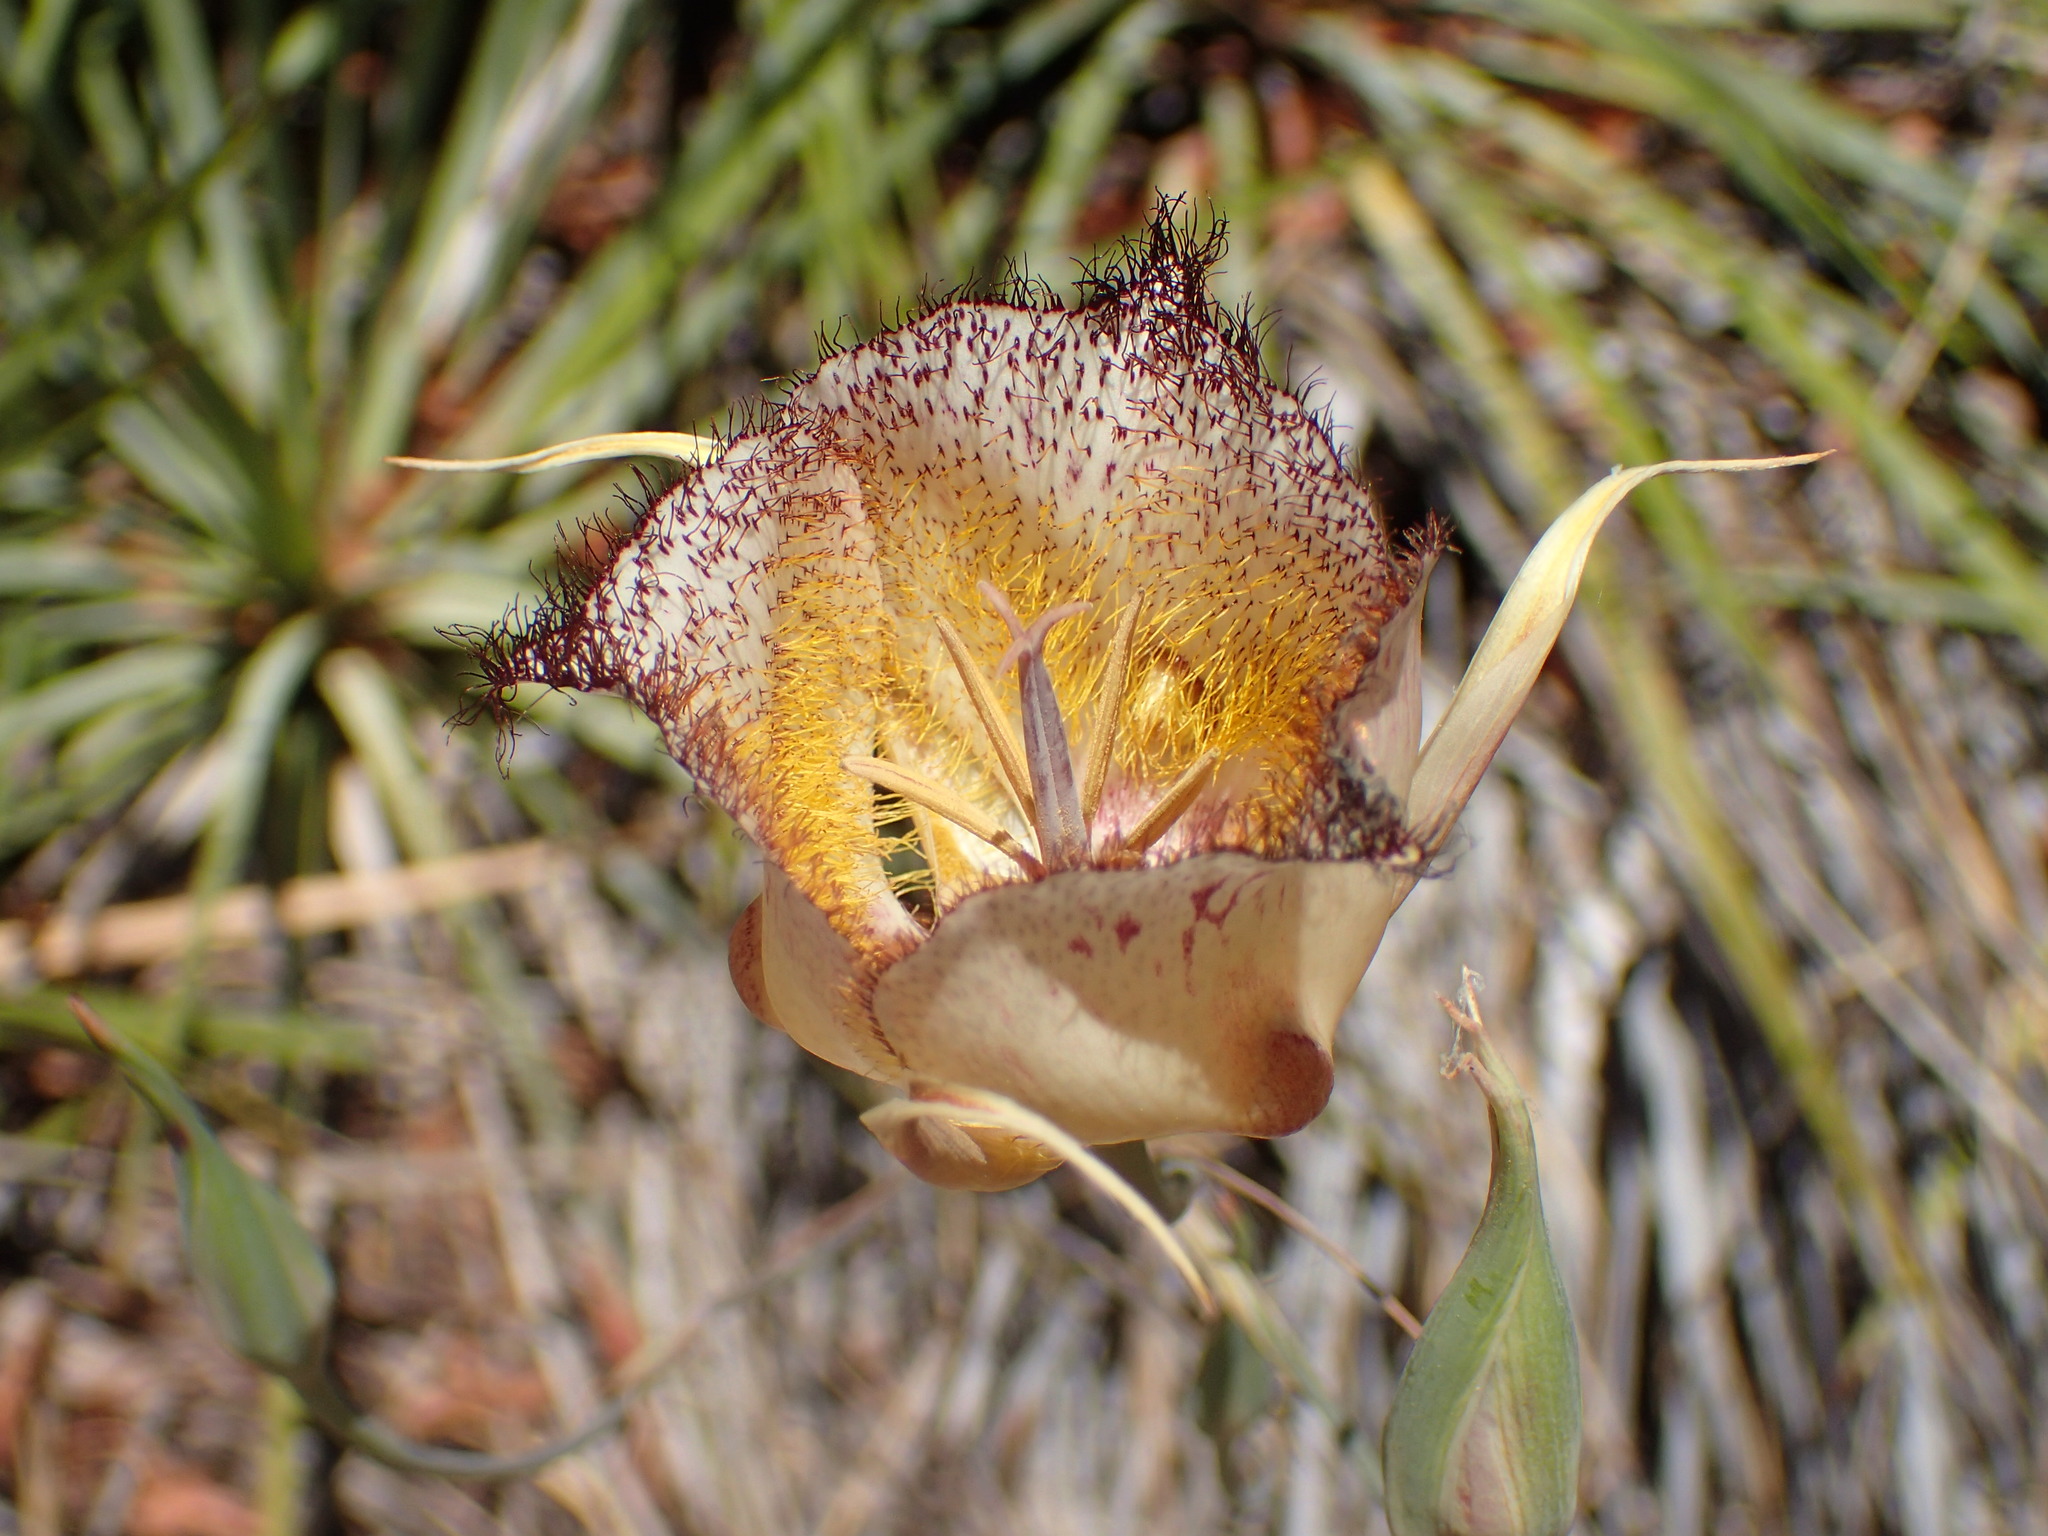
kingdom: Plantae
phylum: Tracheophyta
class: Liliopsida
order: Liliales
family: Liliaceae
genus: Calochortus
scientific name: Calochortus fimbriatus
